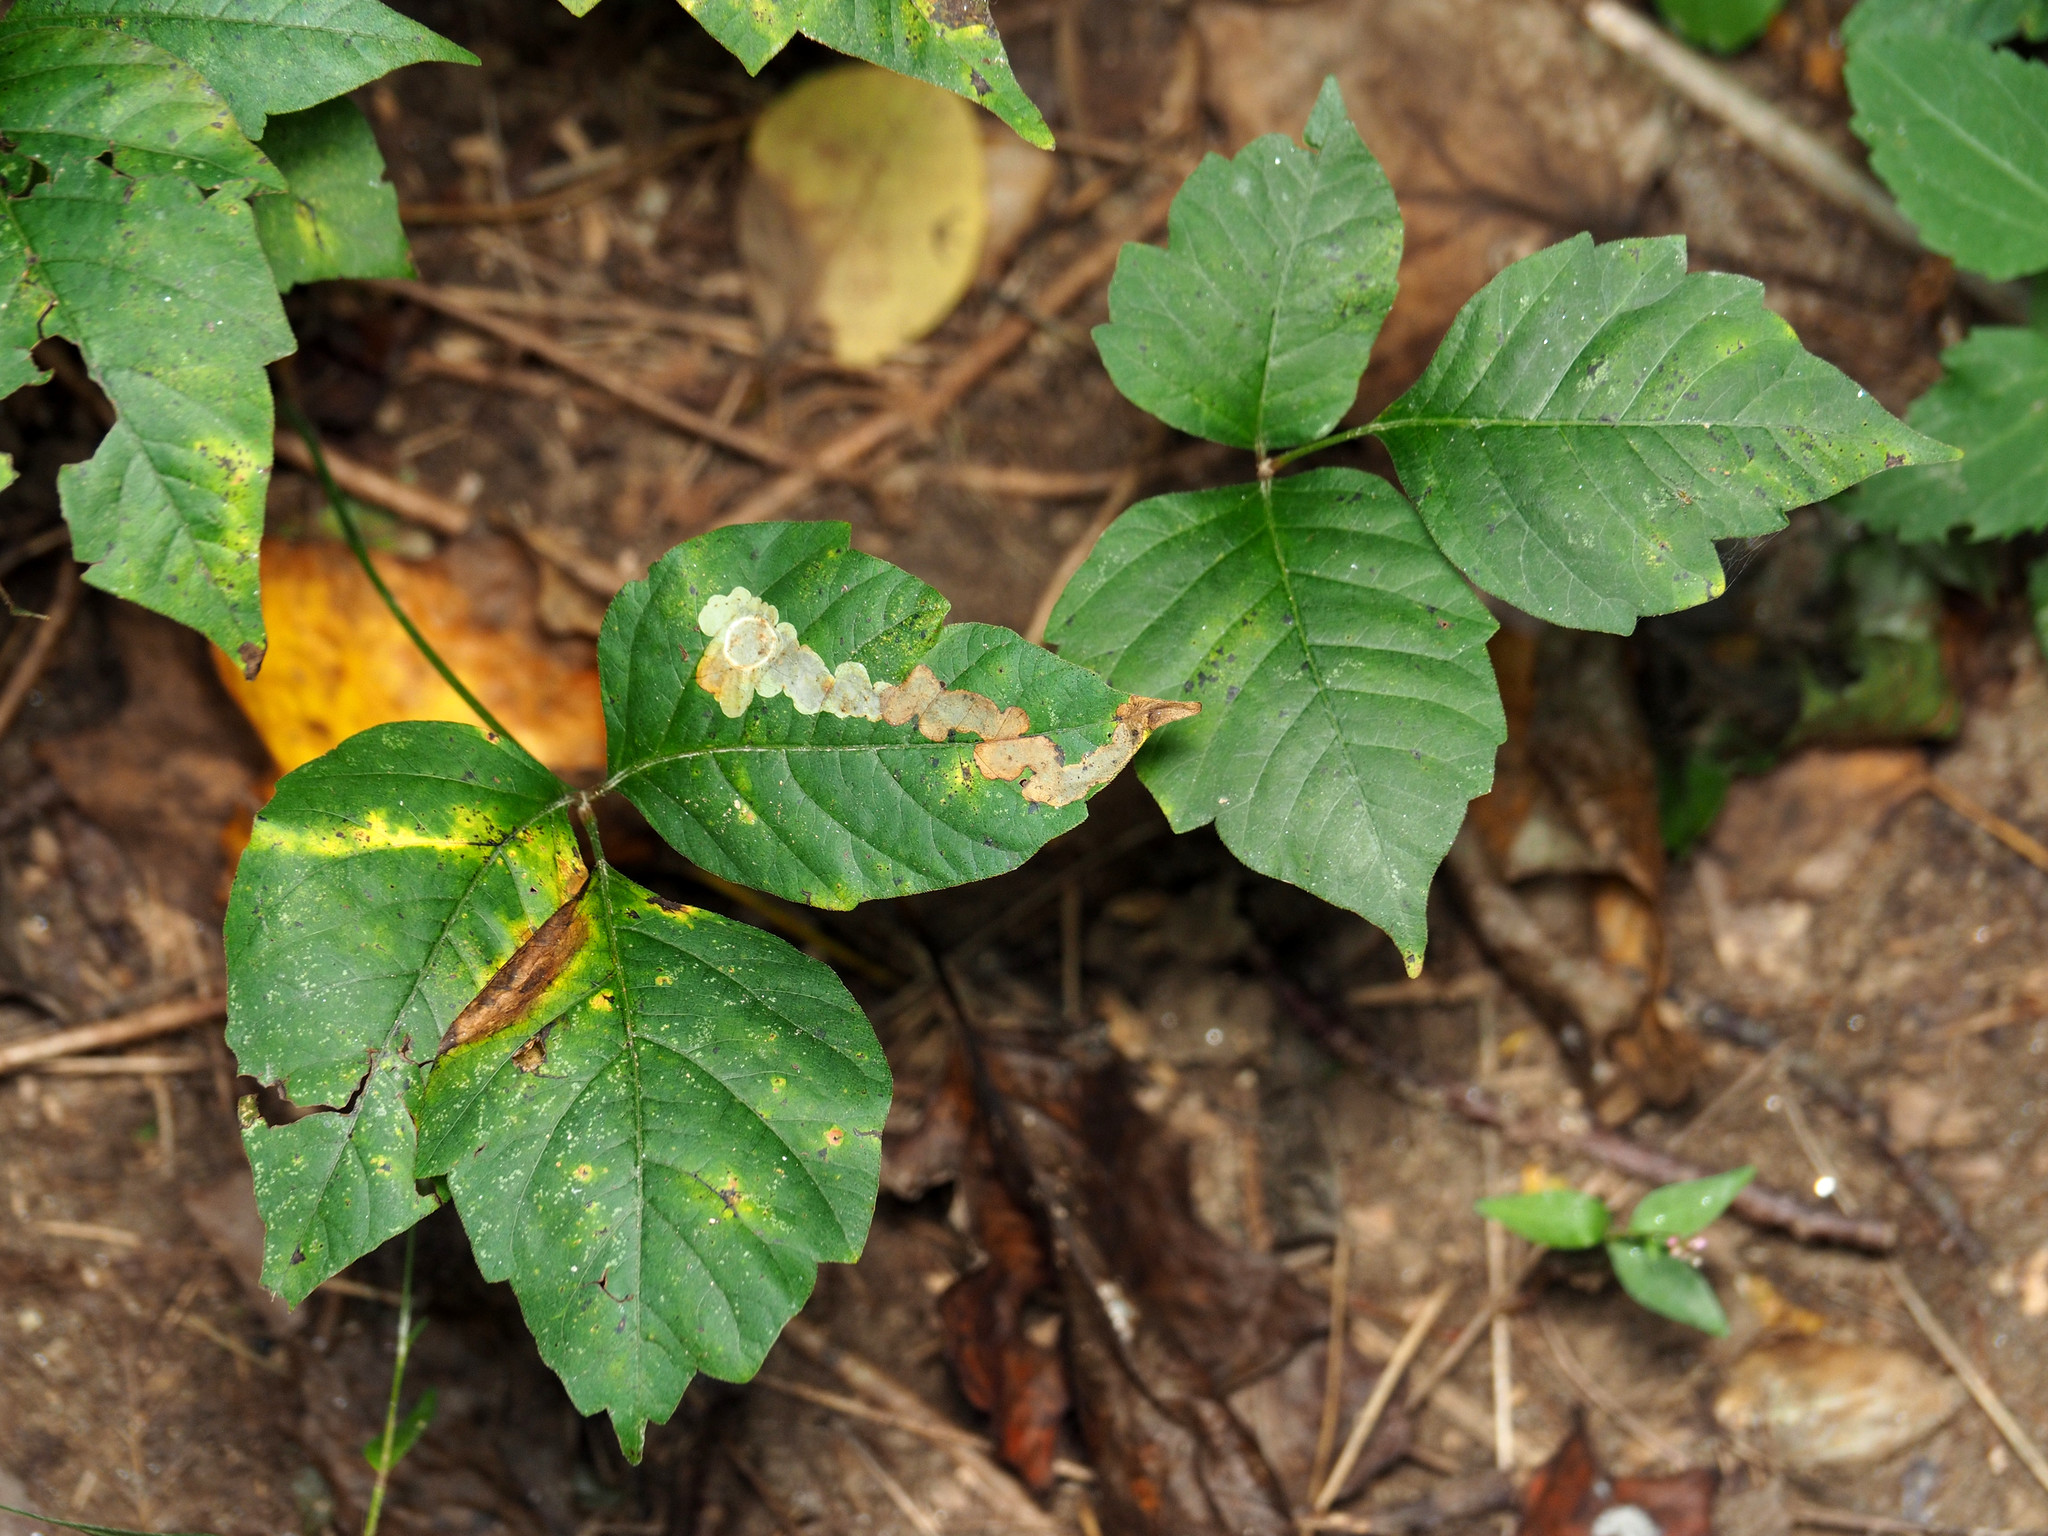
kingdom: Plantae
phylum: Tracheophyta
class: Magnoliopsida
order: Sapindales
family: Anacardiaceae
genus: Toxicodendron
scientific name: Toxicodendron radicans
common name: Poison ivy
